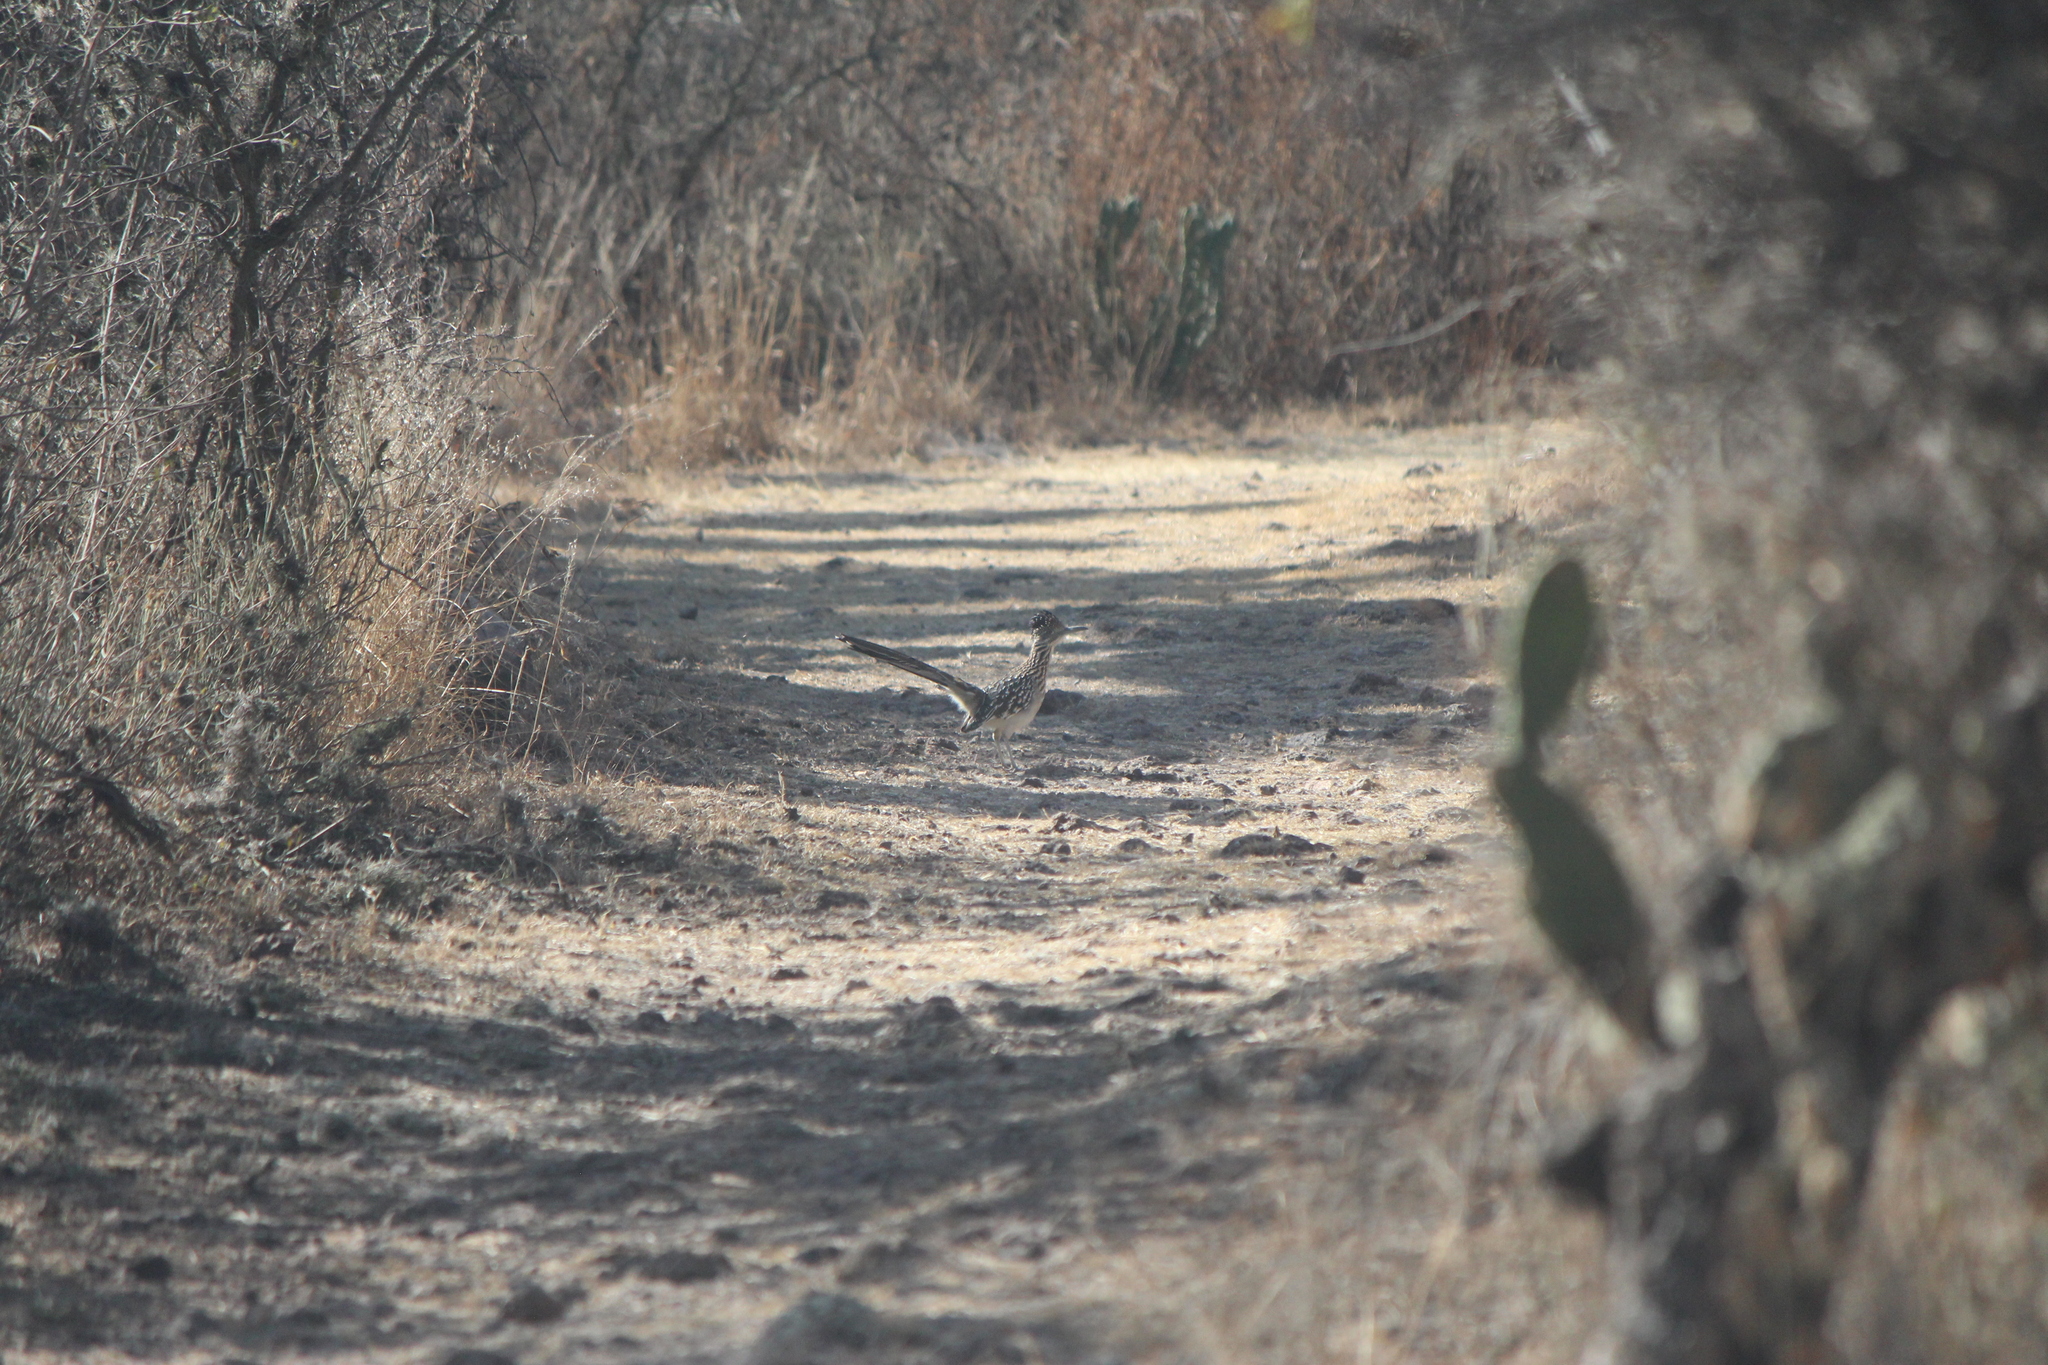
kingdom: Animalia
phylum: Chordata
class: Aves
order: Cuculiformes
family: Cuculidae
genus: Geococcyx
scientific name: Geococcyx californianus
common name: Greater roadrunner
